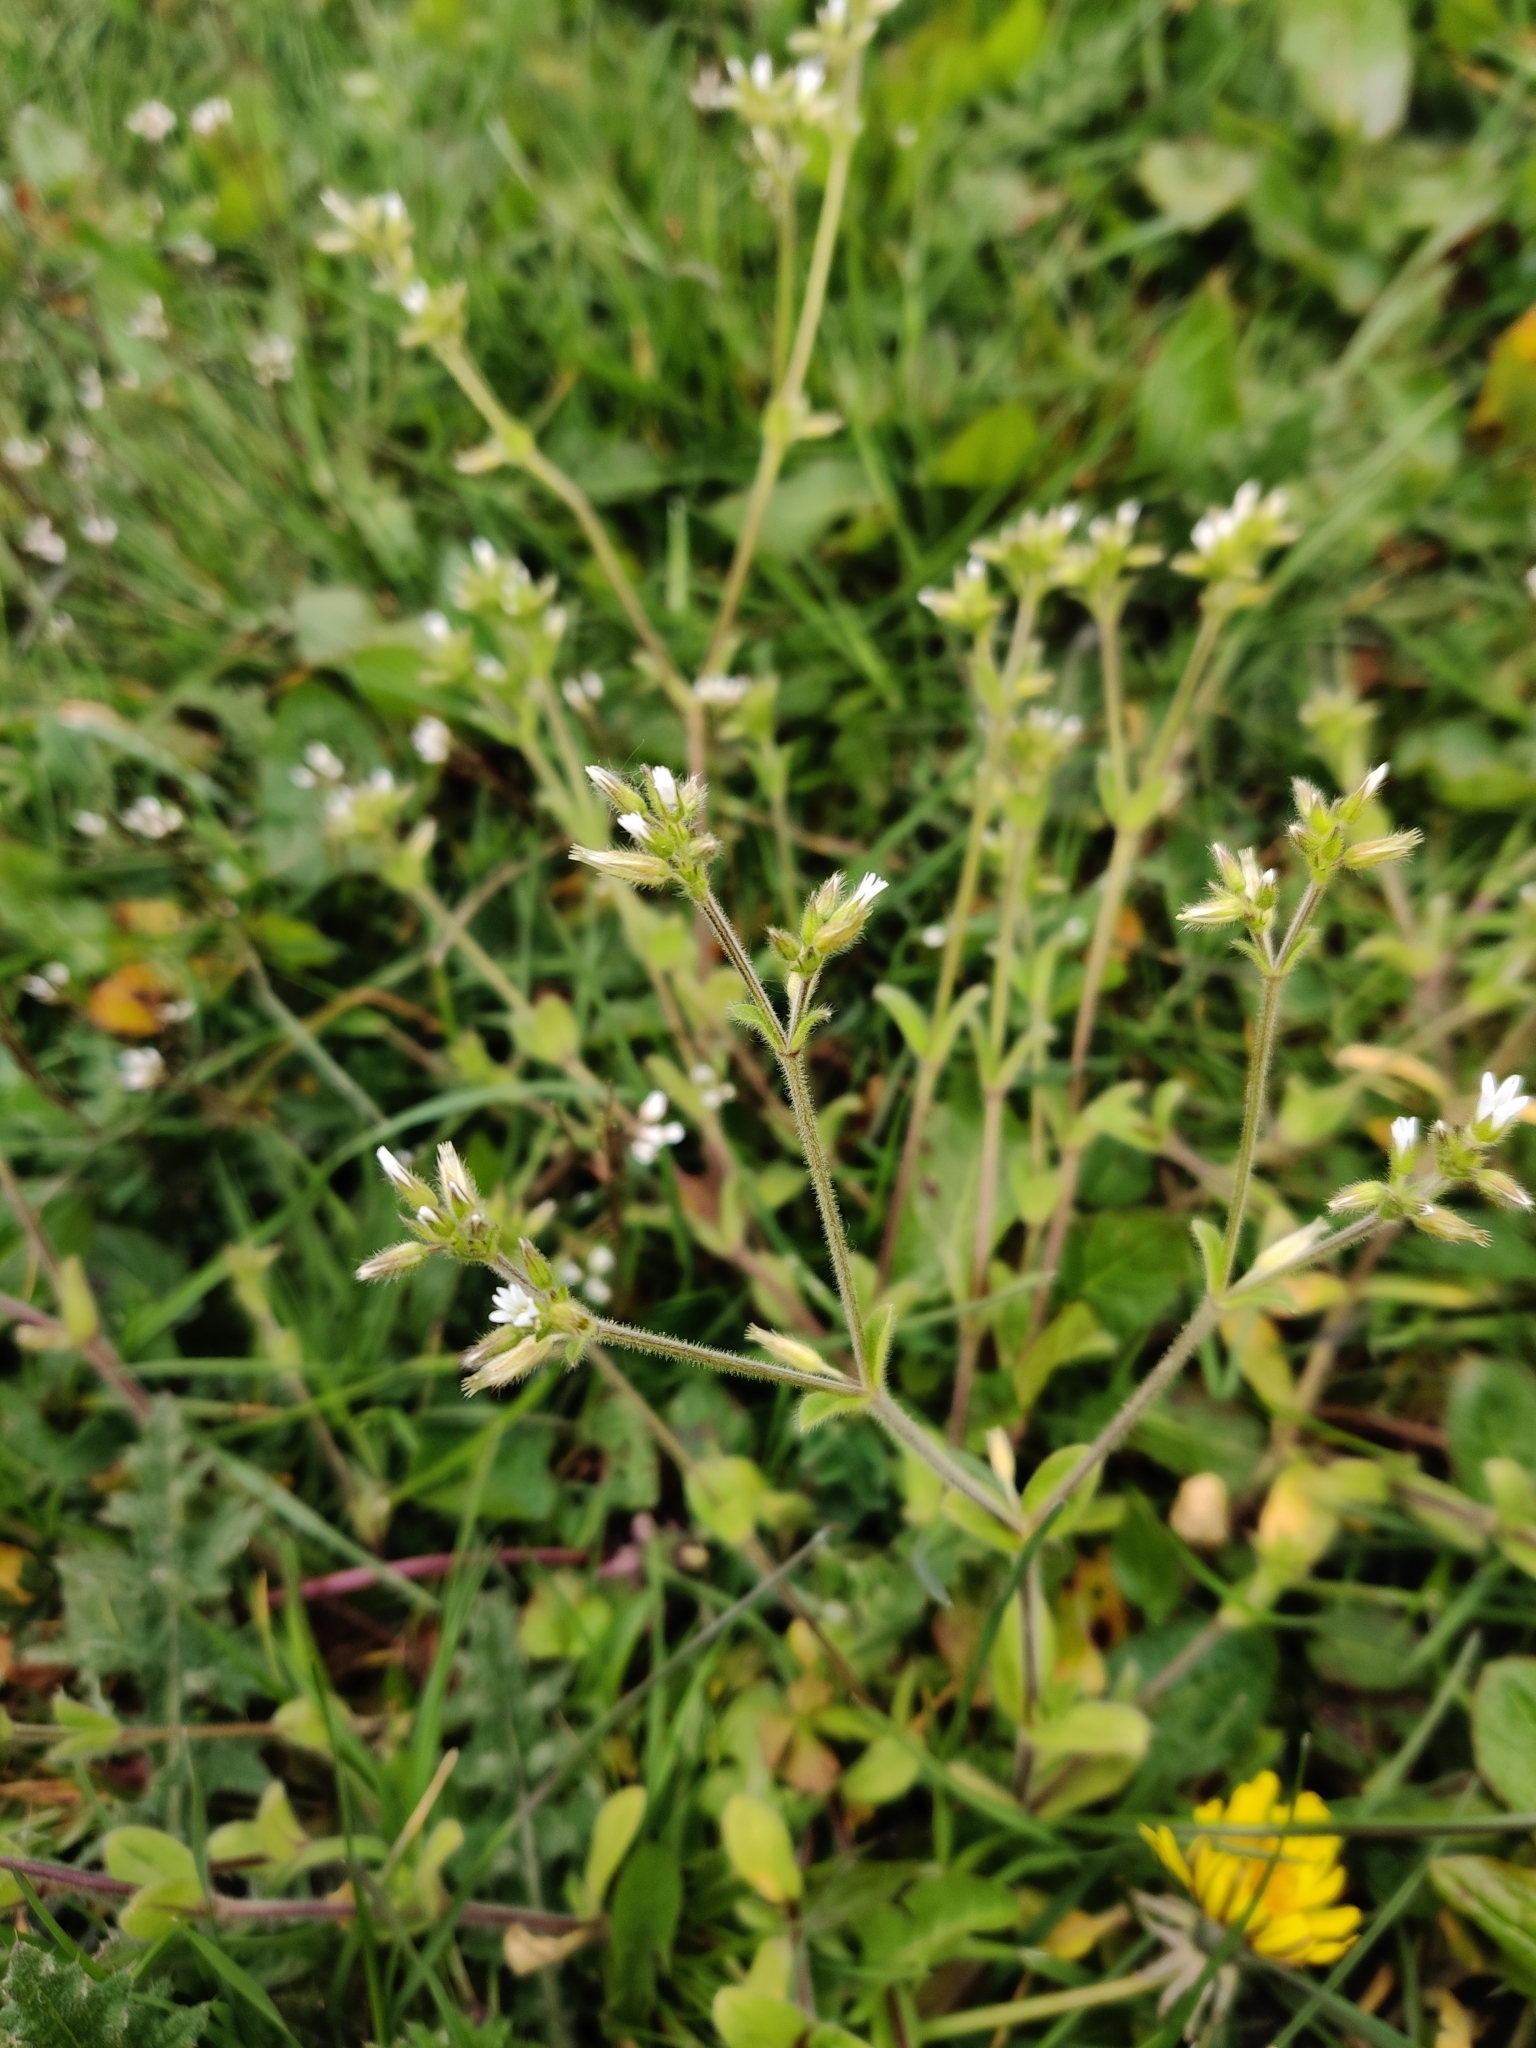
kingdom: Plantae
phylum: Tracheophyta
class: Magnoliopsida
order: Caryophyllales
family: Caryophyllaceae
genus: Cerastium
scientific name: Cerastium fontanum
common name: Common mouse-ear
